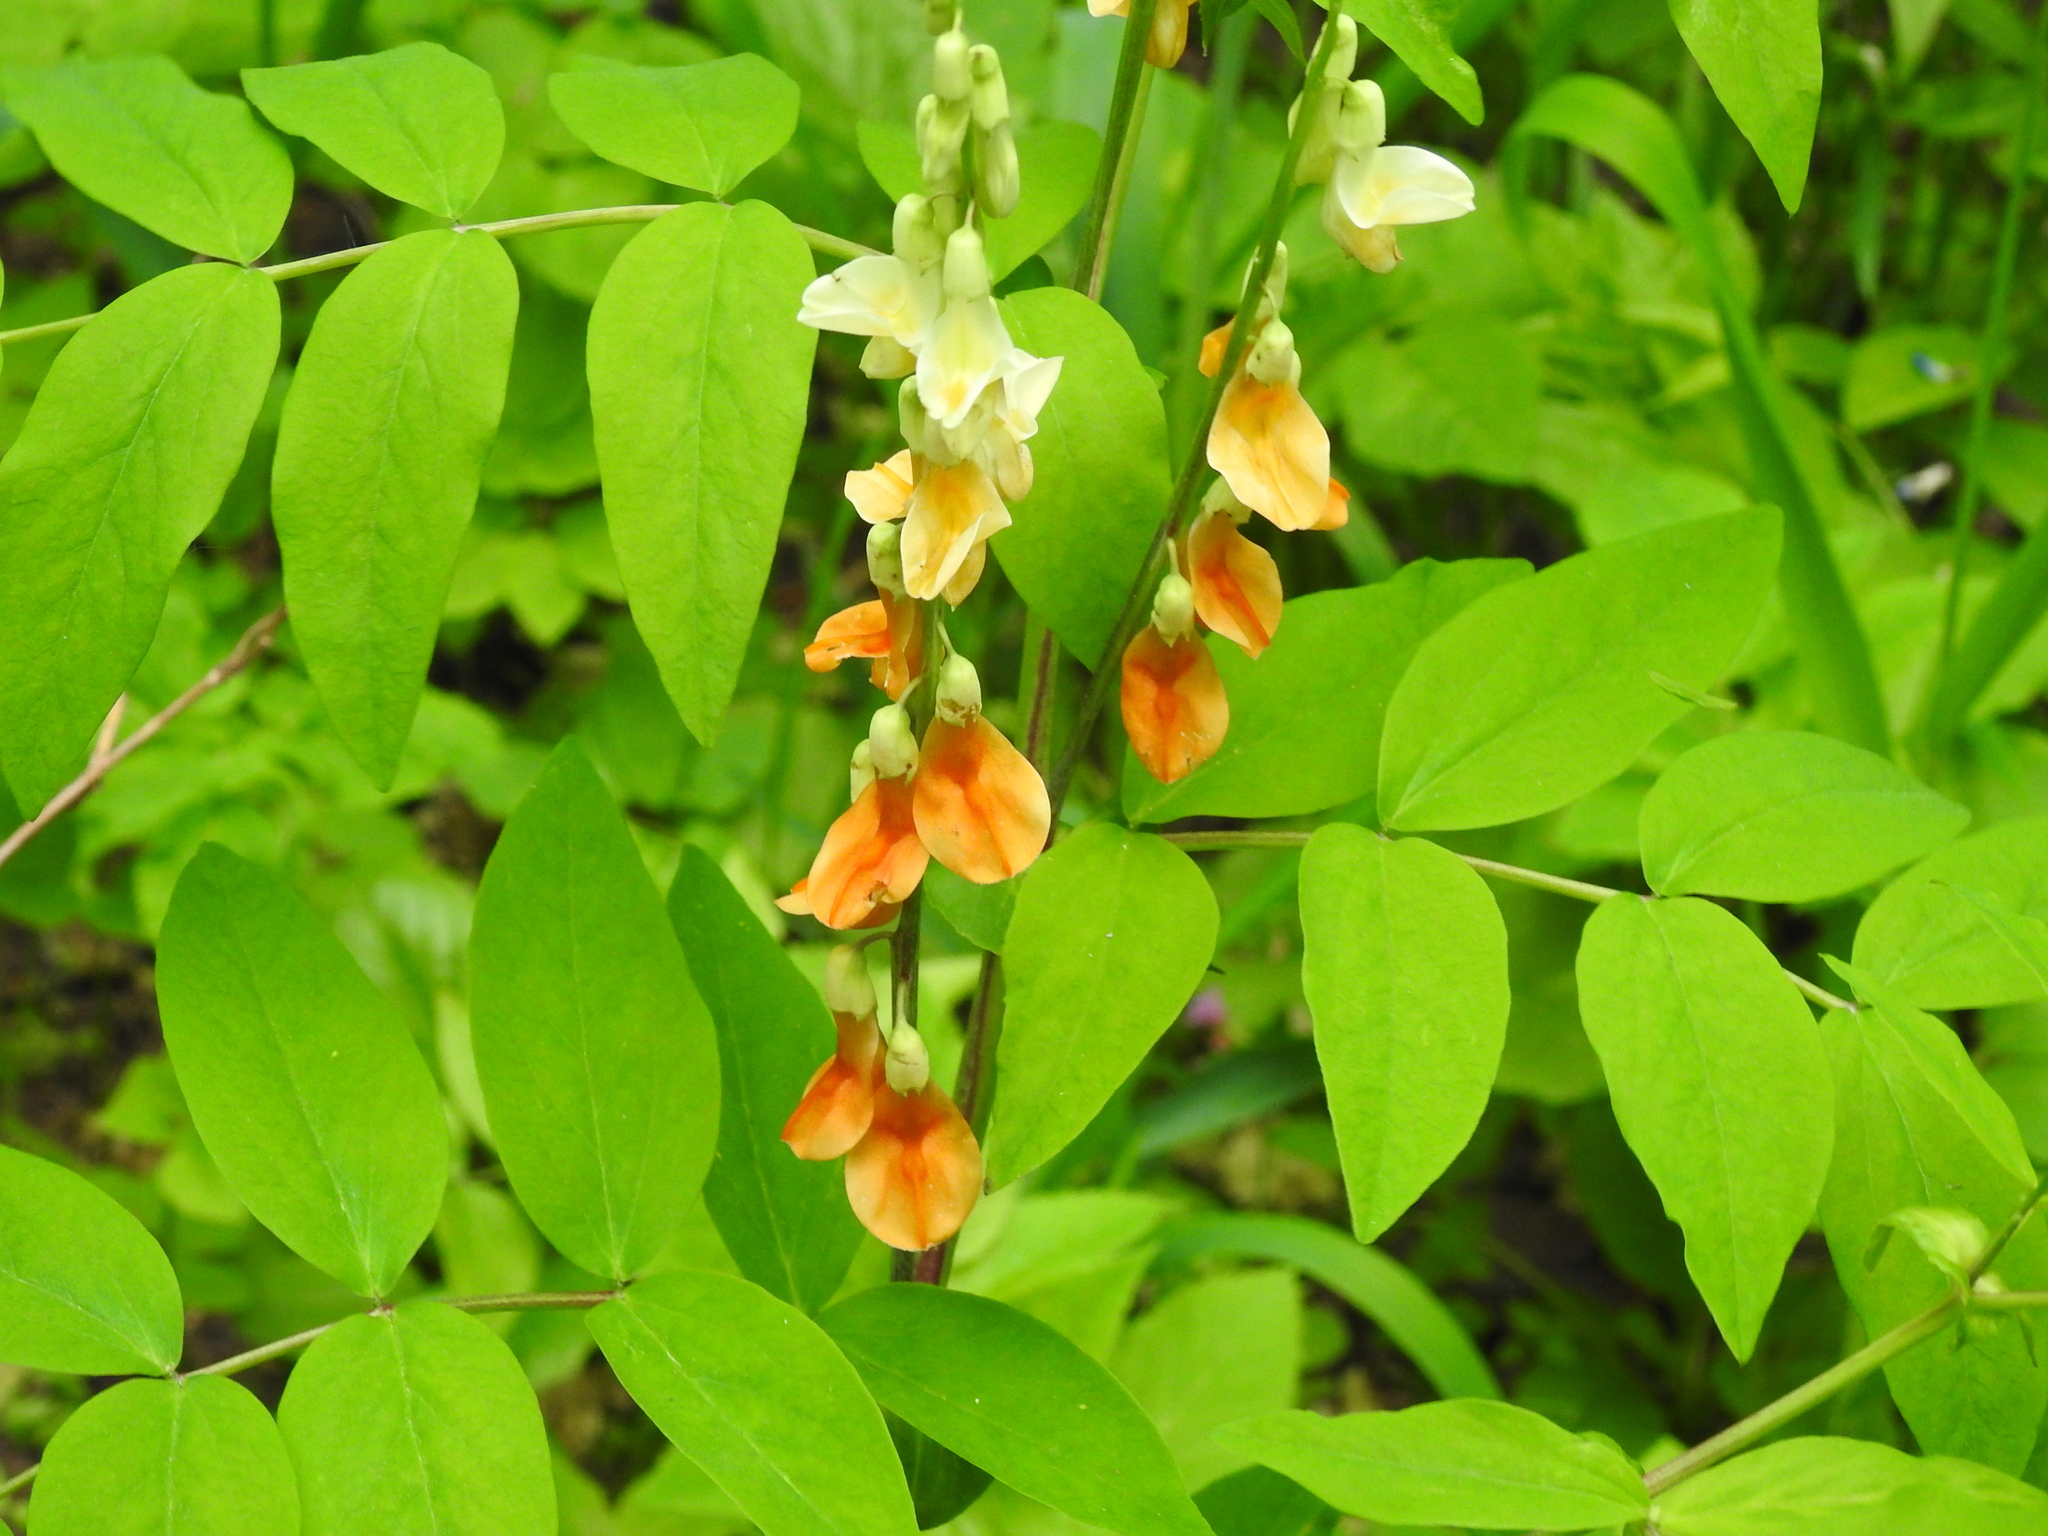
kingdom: Plantae
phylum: Tracheophyta
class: Magnoliopsida
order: Fabales
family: Fabaceae
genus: Lathyrus
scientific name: Lathyrus gmelinii
